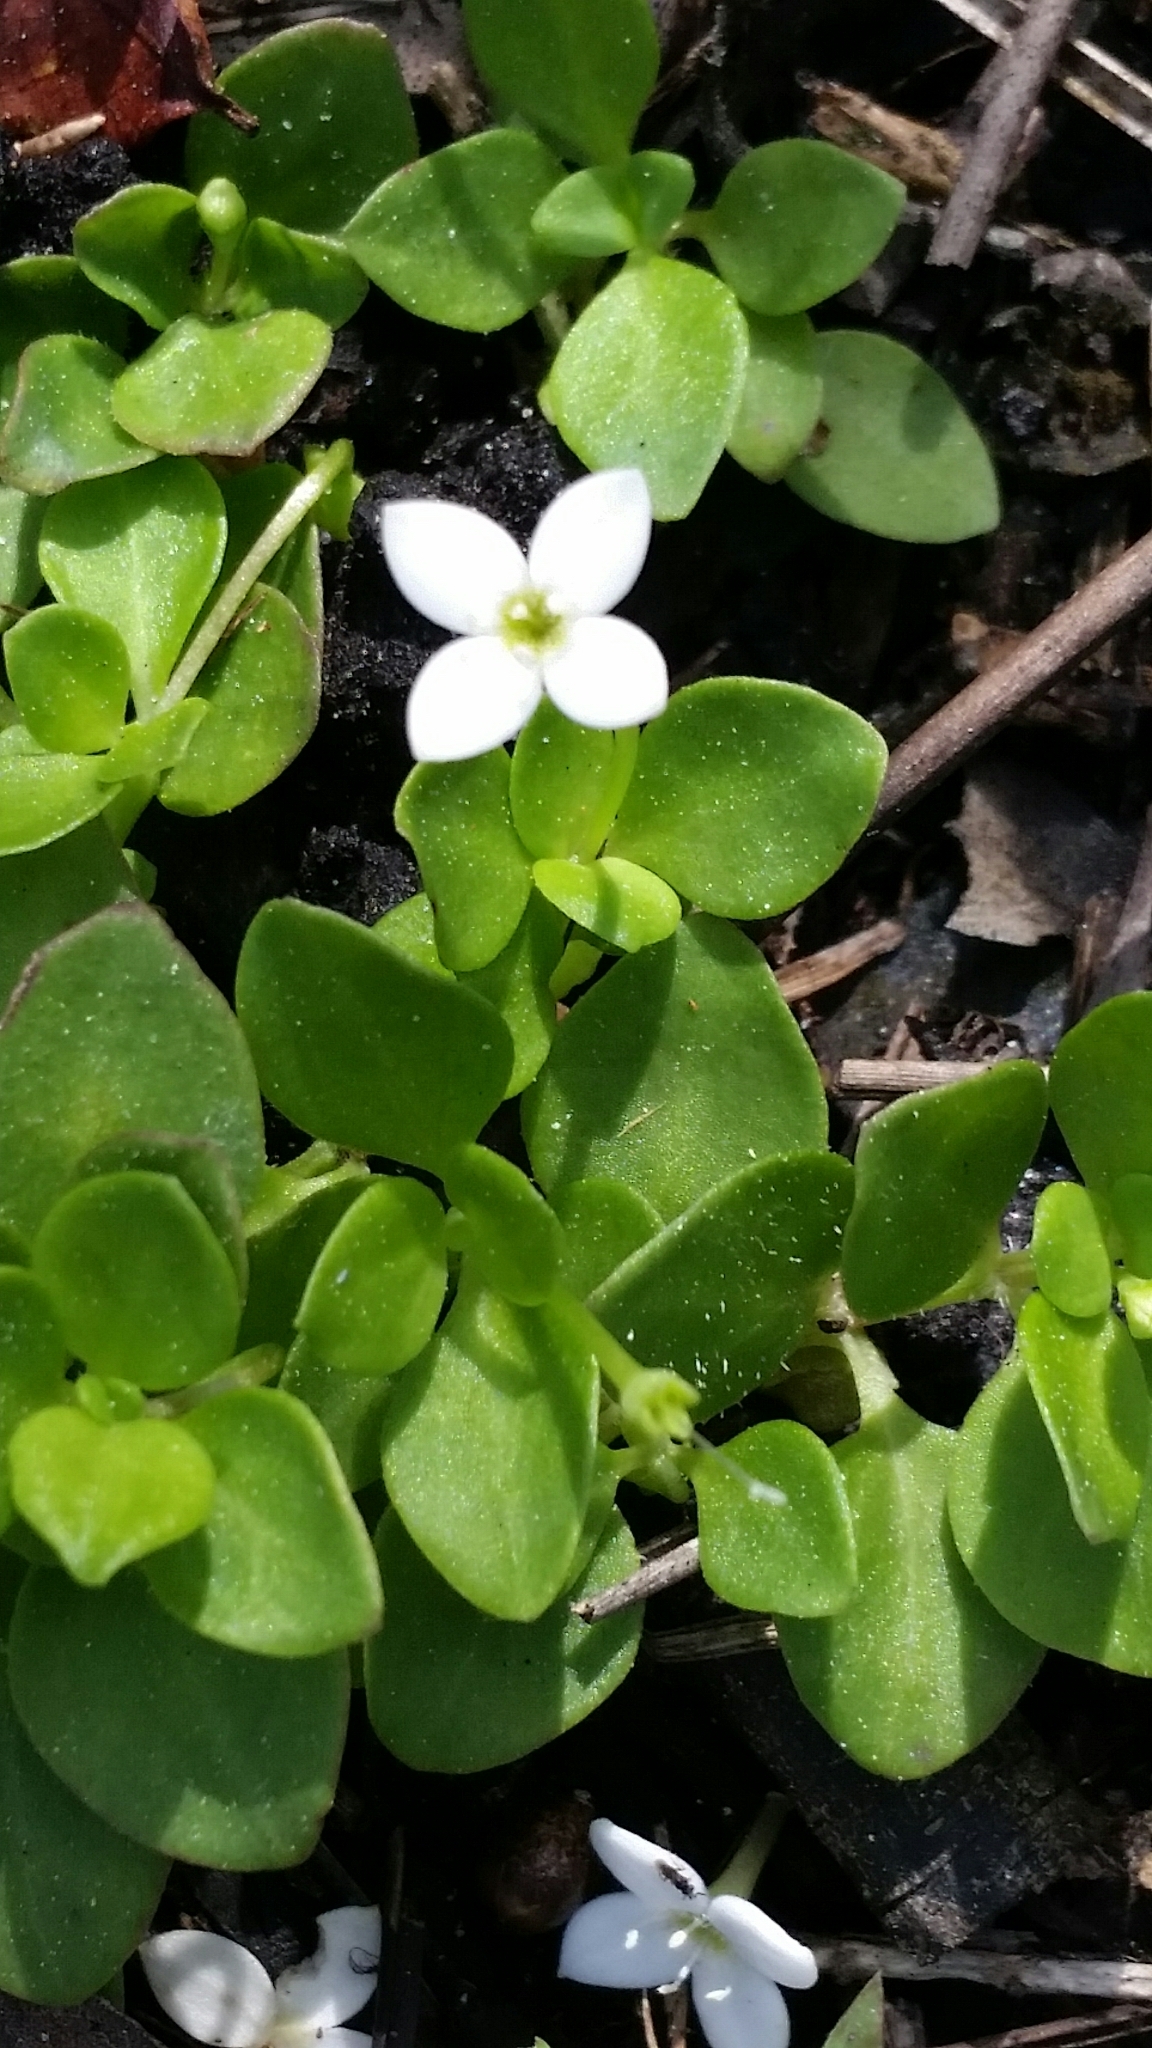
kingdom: Plantae
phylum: Tracheophyta
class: Magnoliopsida
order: Gentianales
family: Rubiaceae
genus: Houstonia
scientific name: Houstonia procumbens
